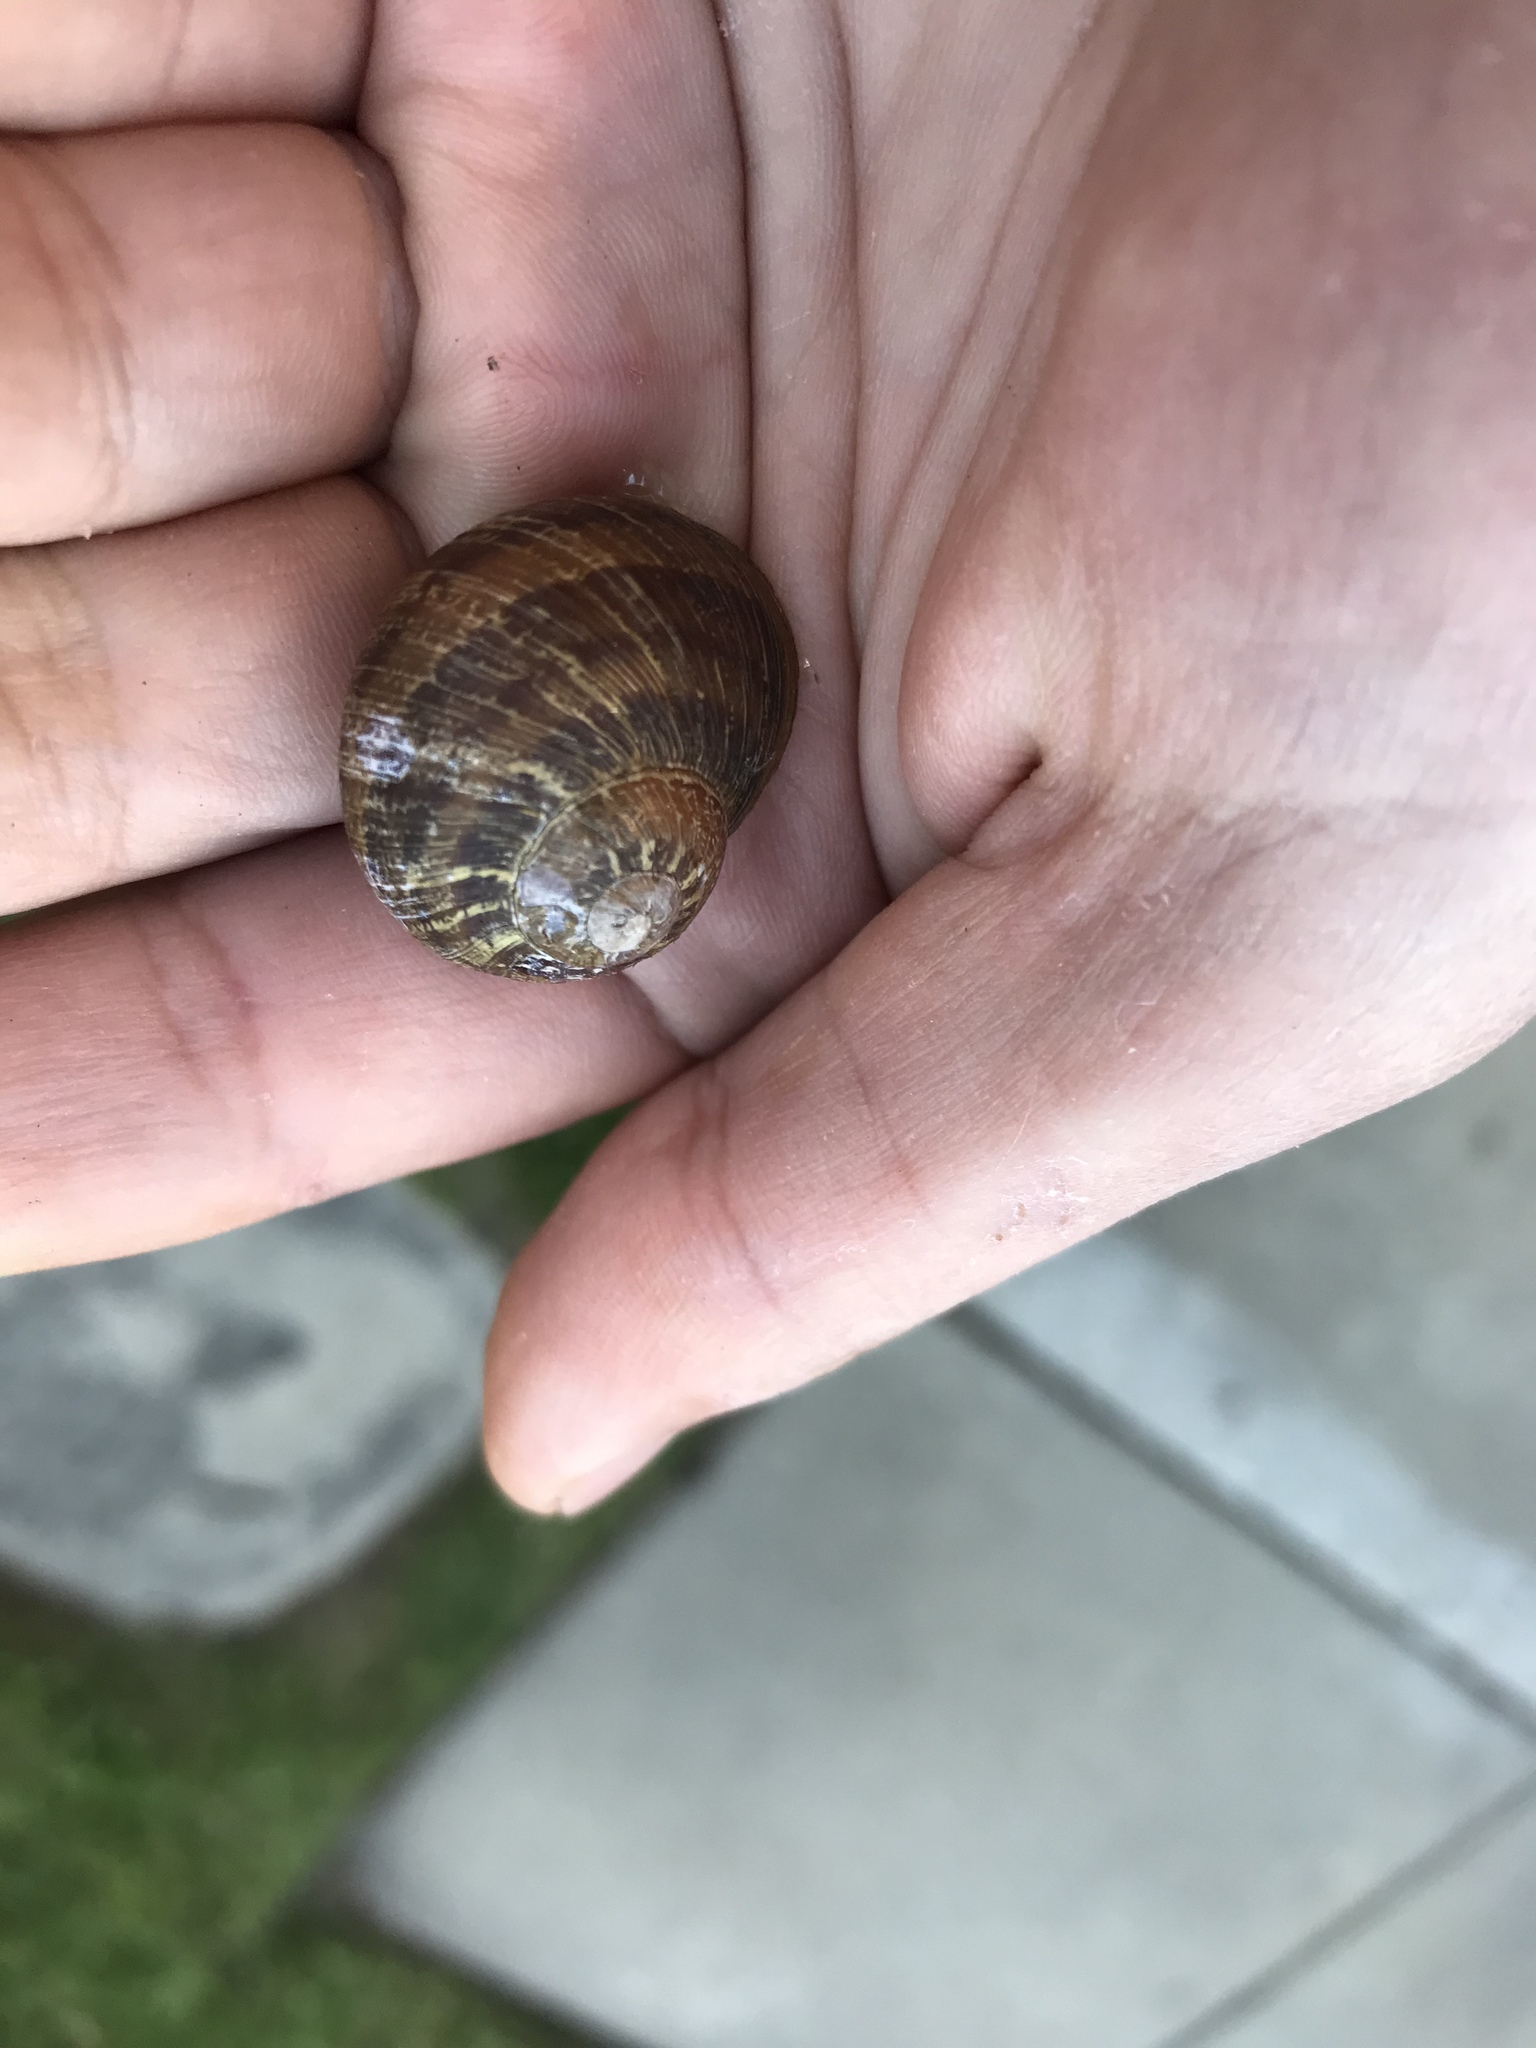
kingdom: Animalia
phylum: Mollusca
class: Gastropoda
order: Stylommatophora
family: Helicidae
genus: Cornu
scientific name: Cornu aspersum
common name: Brown garden snail
